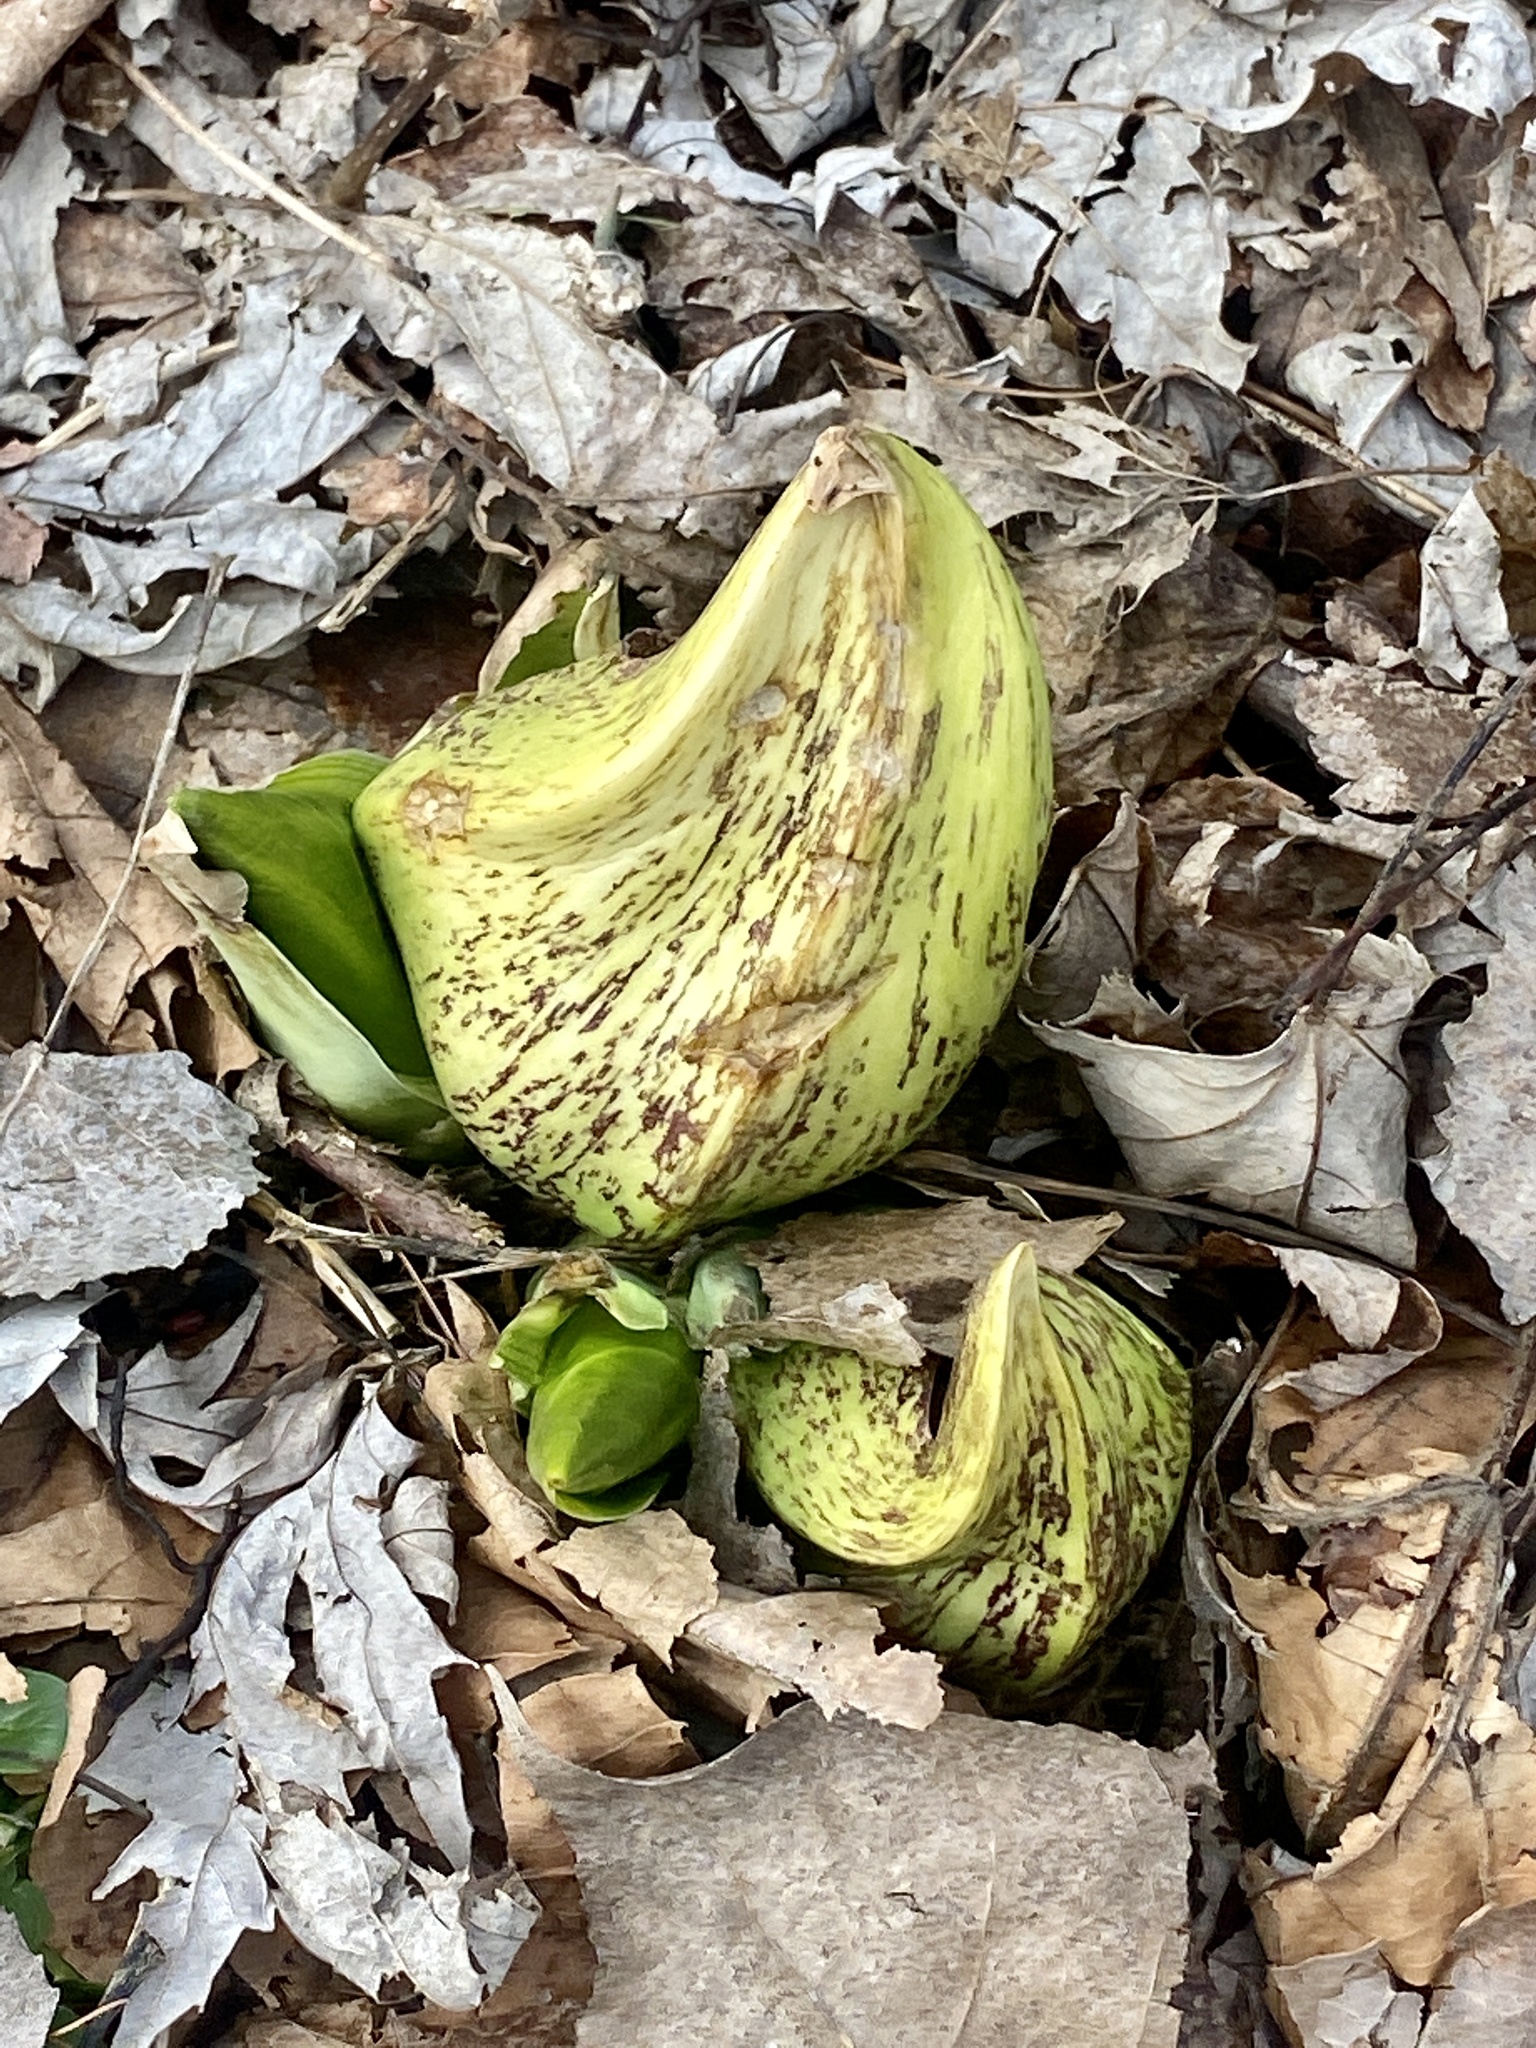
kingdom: Plantae
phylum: Tracheophyta
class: Liliopsida
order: Alismatales
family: Araceae
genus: Symplocarpus
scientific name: Symplocarpus foetidus
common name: Eastern skunk cabbage
